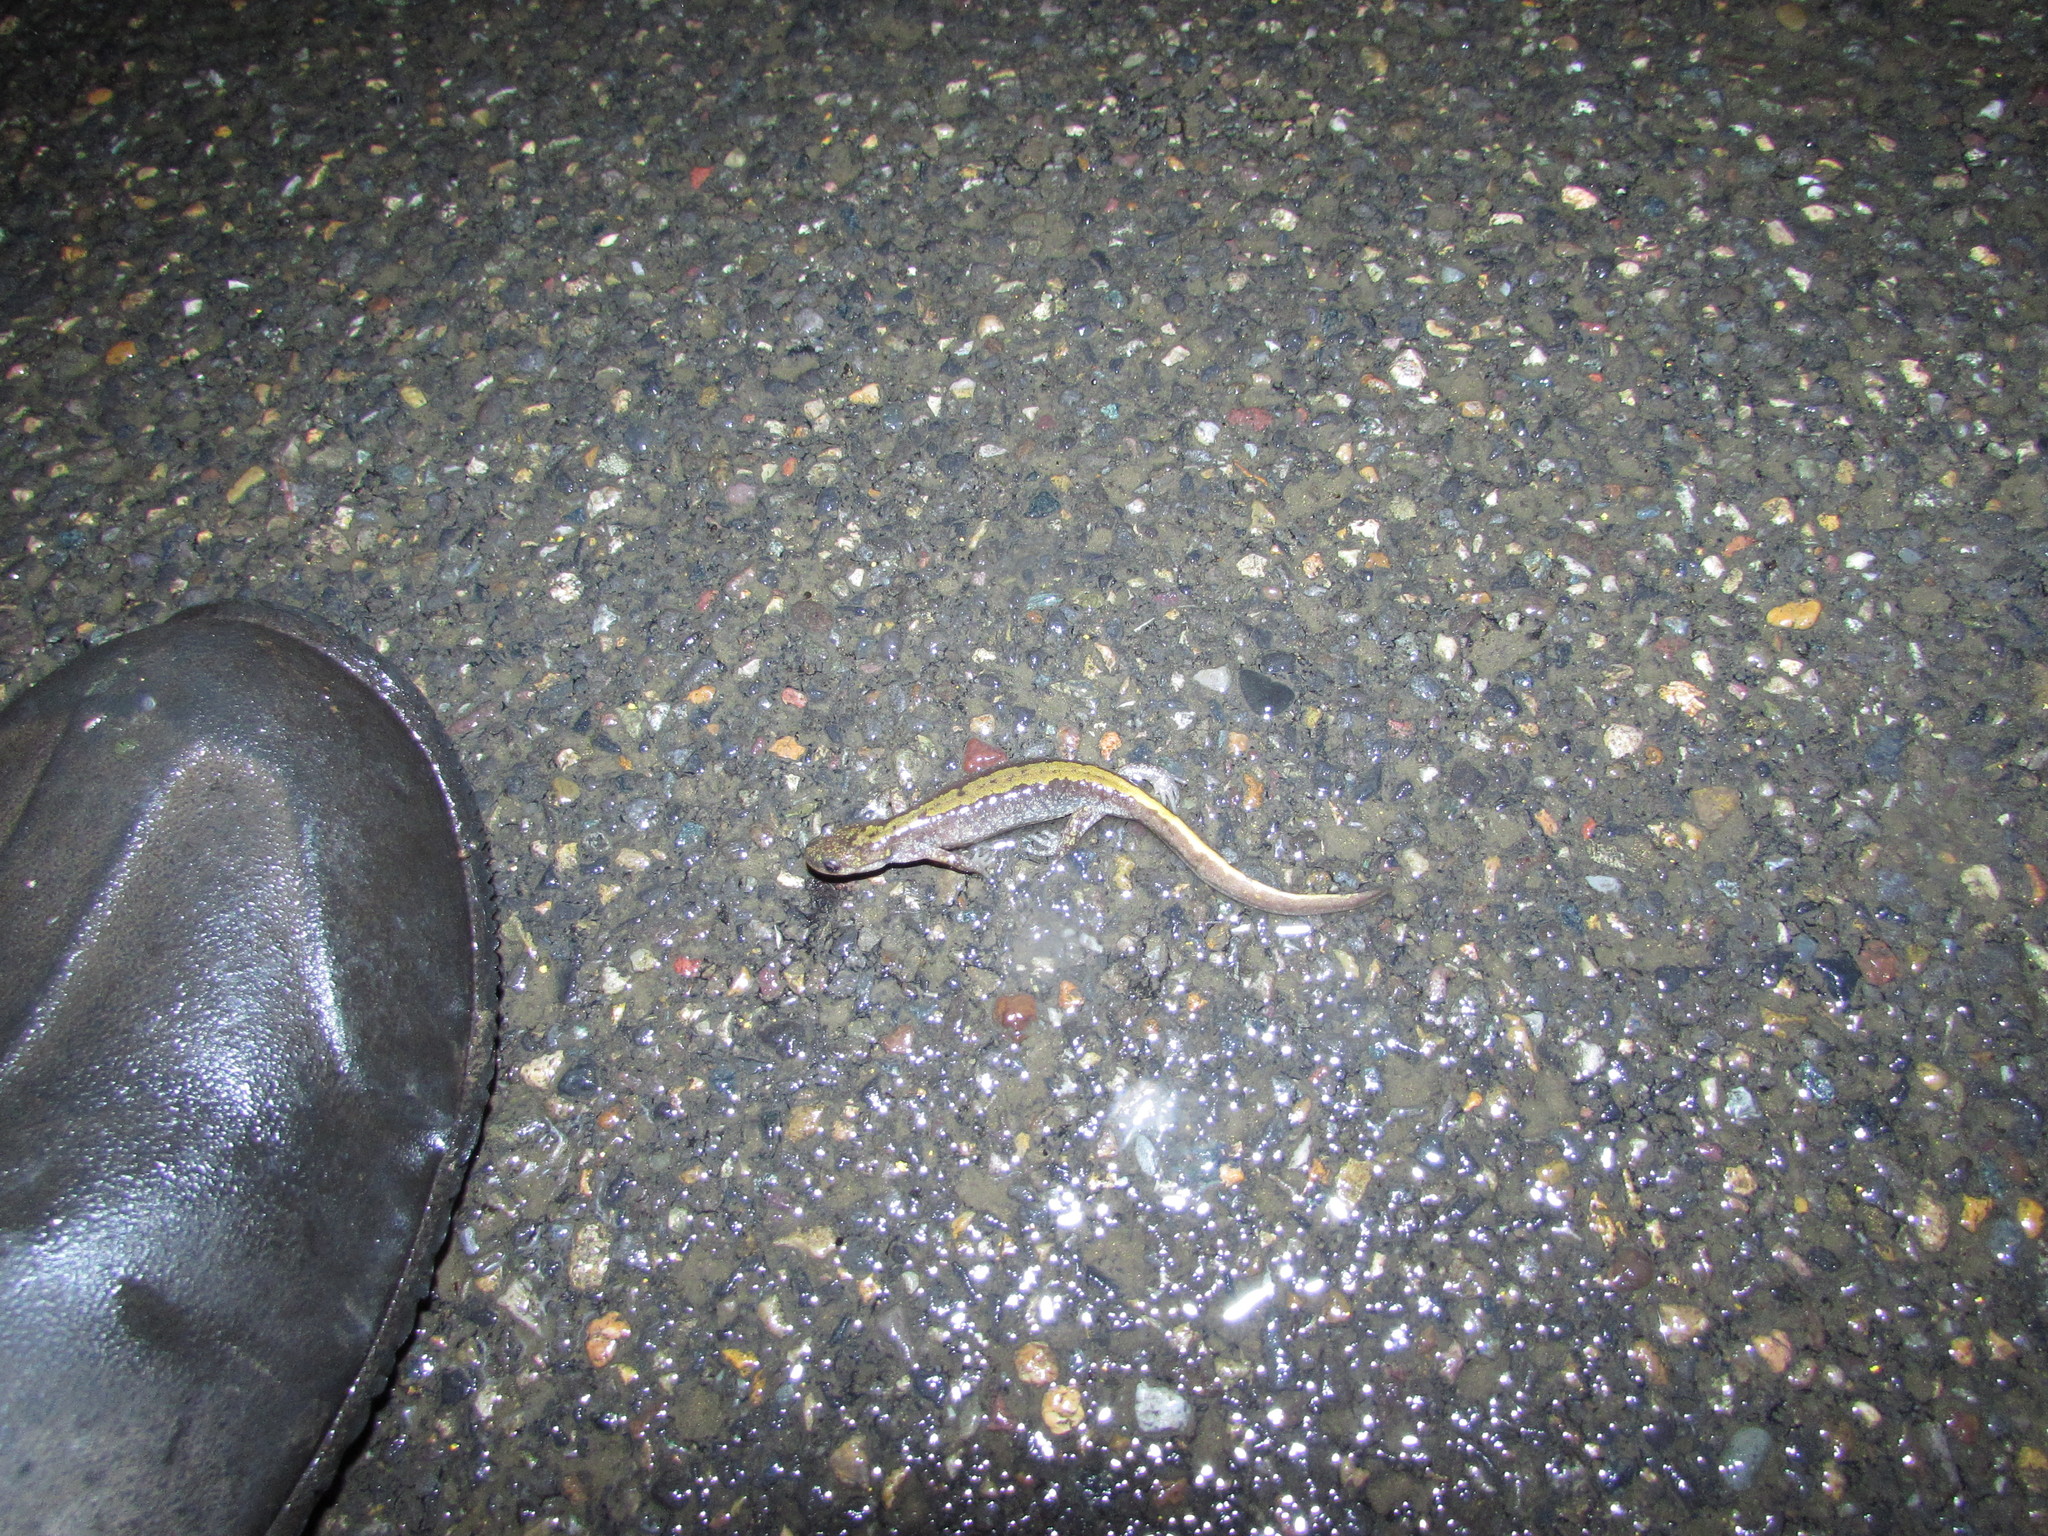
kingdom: Animalia
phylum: Chordata
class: Amphibia
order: Caudata
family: Ambystomatidae
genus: Ambystoma
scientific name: Ambystoma macrodactylum
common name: Long-toed salamander
